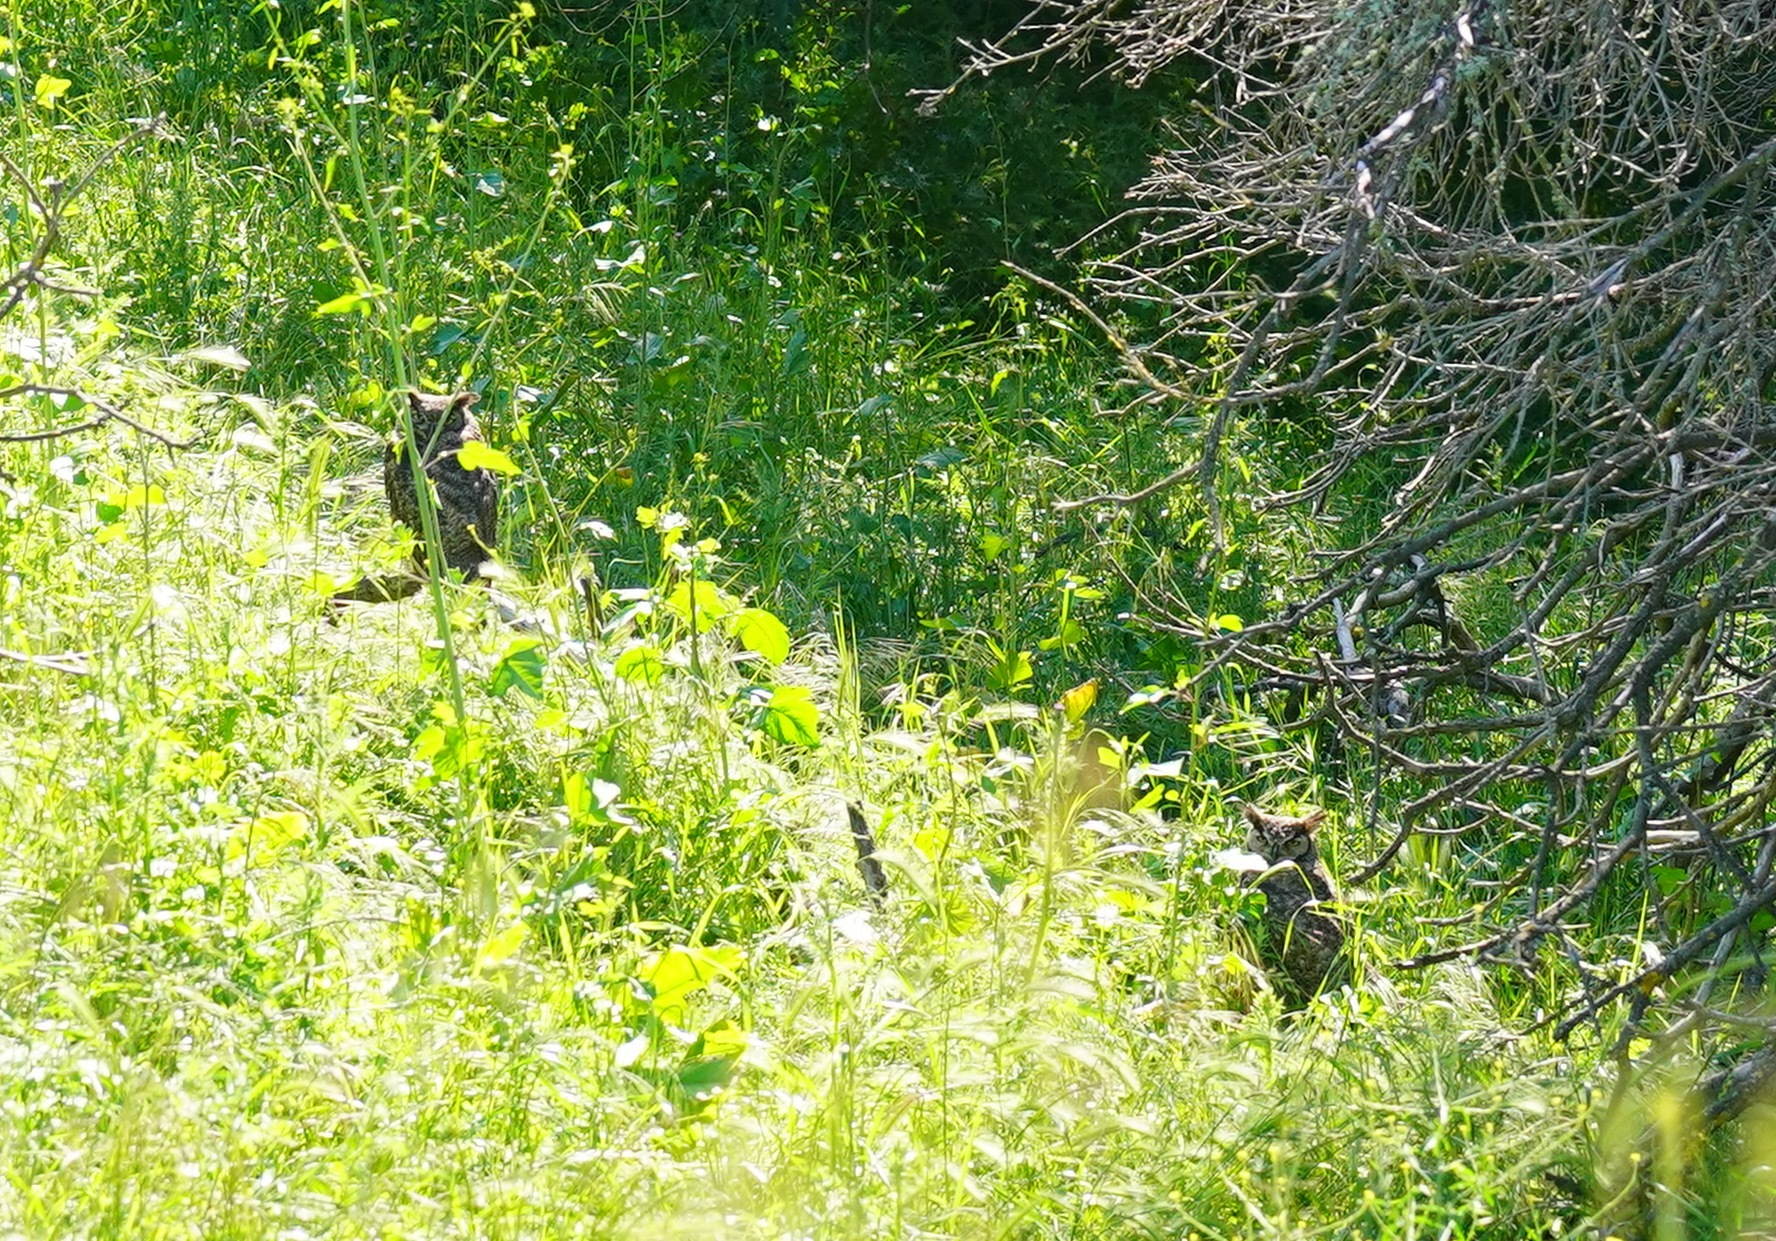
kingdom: Animalia
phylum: Chordata
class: Aves
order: Strigiformes
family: Strigidae
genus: Bubo
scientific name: Bubo virginianus
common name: Great horned owl
